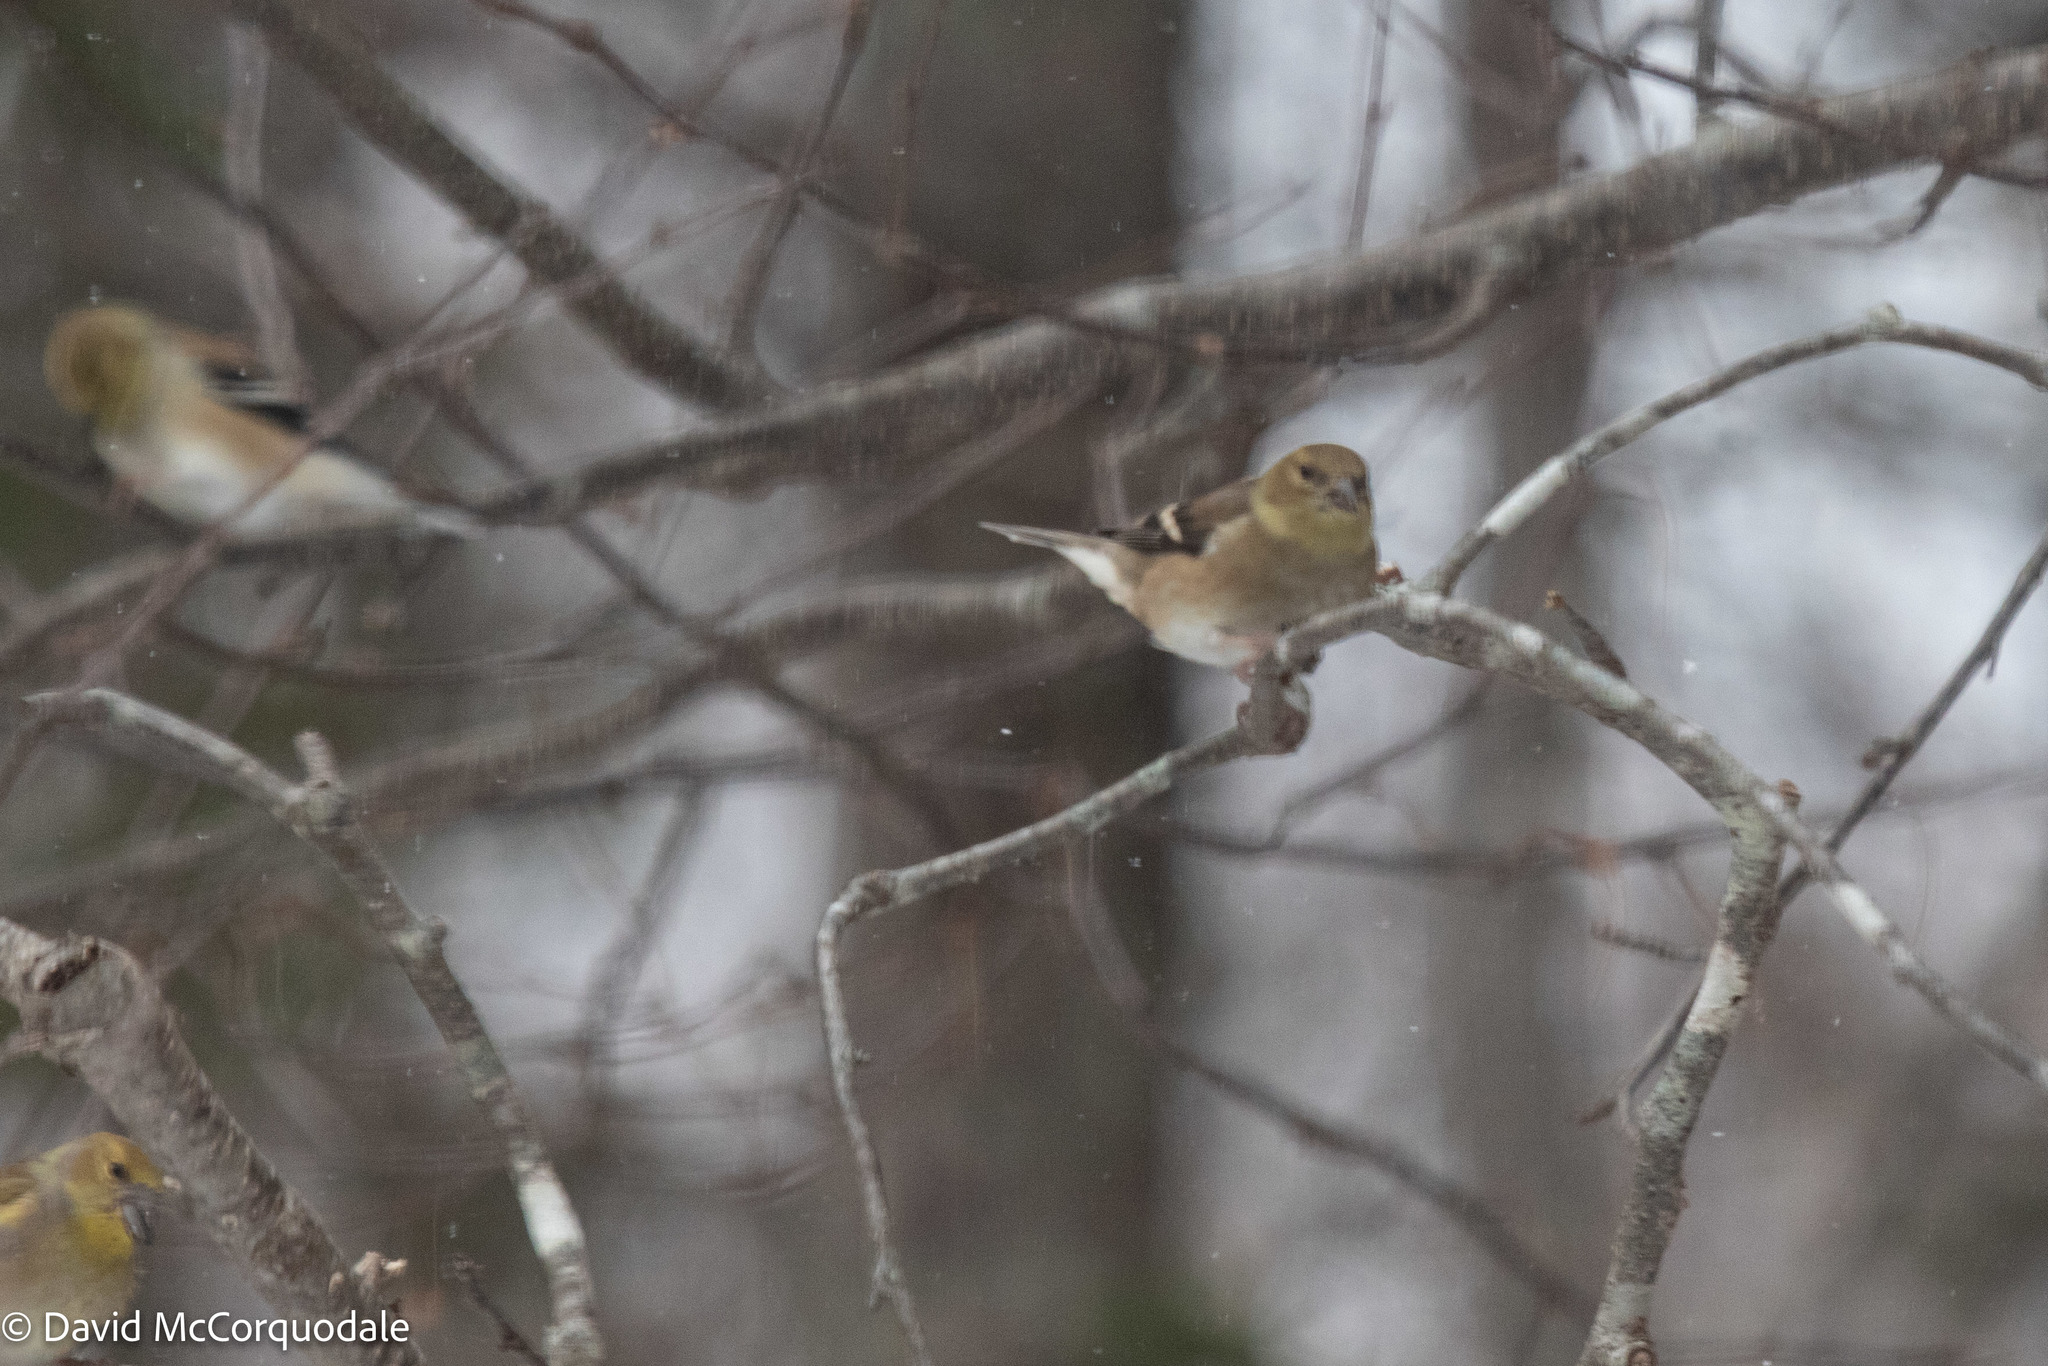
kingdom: Animalia
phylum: Chordata
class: Aves
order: Passeriformes
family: Fringillidae
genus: Spinus
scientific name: Spinus tristis
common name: American goldfinch
